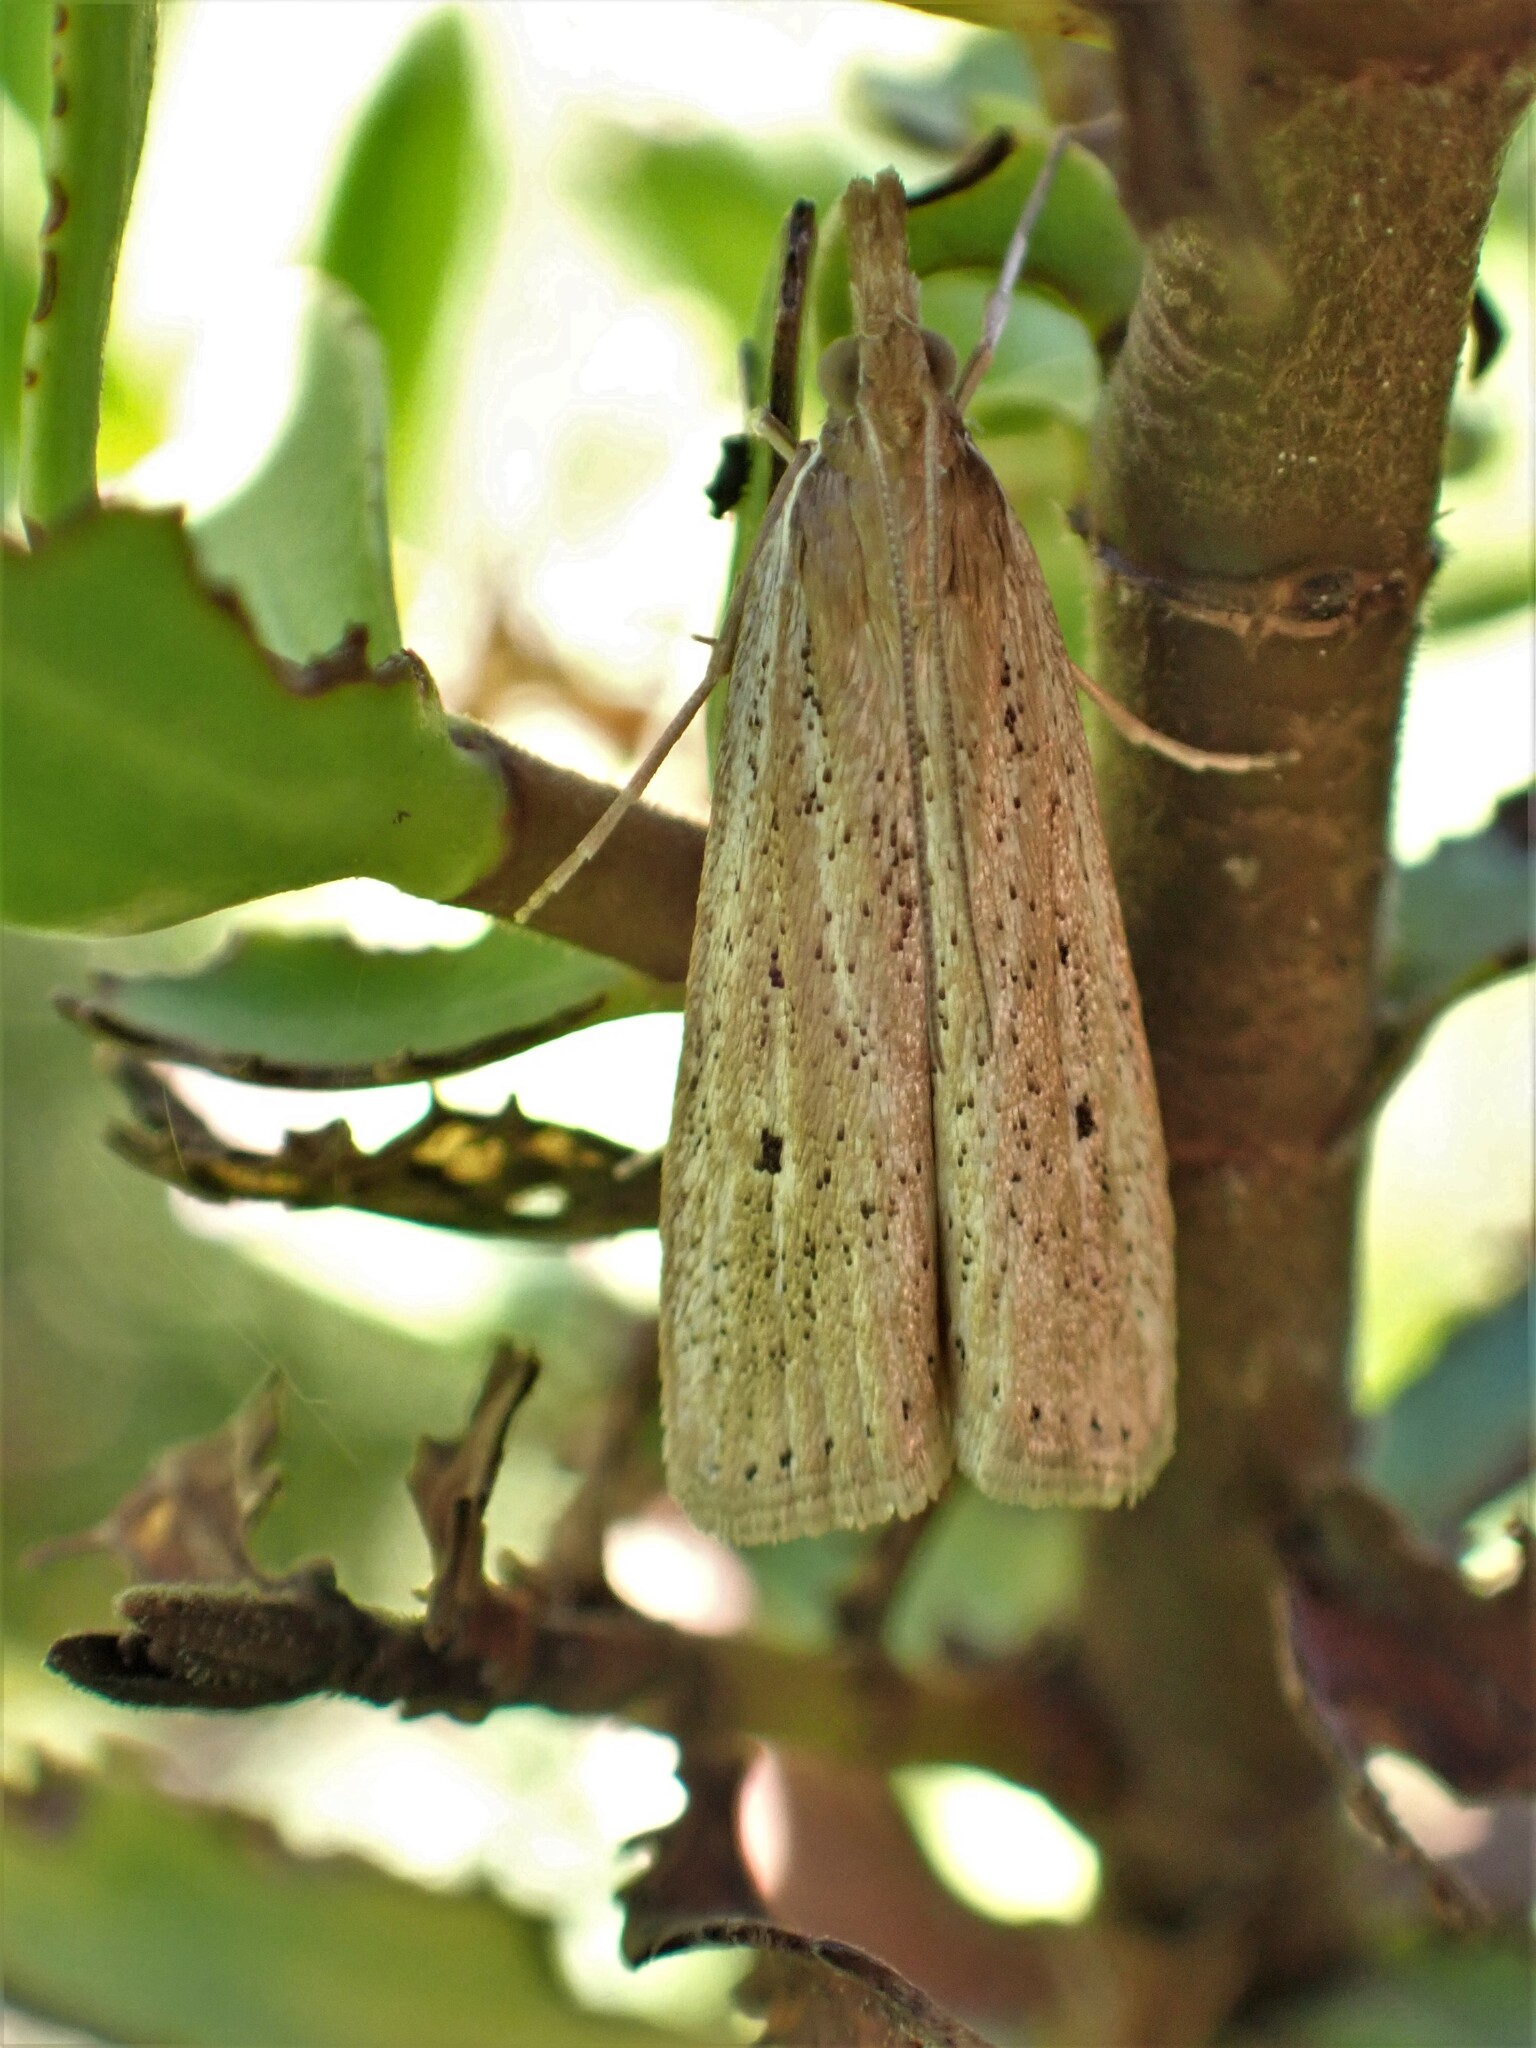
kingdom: Animalia
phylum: Arthropoda
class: Insecta
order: Lepidoptera
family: Crambidae
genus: Eudonia
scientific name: Eudonia sabulosella
